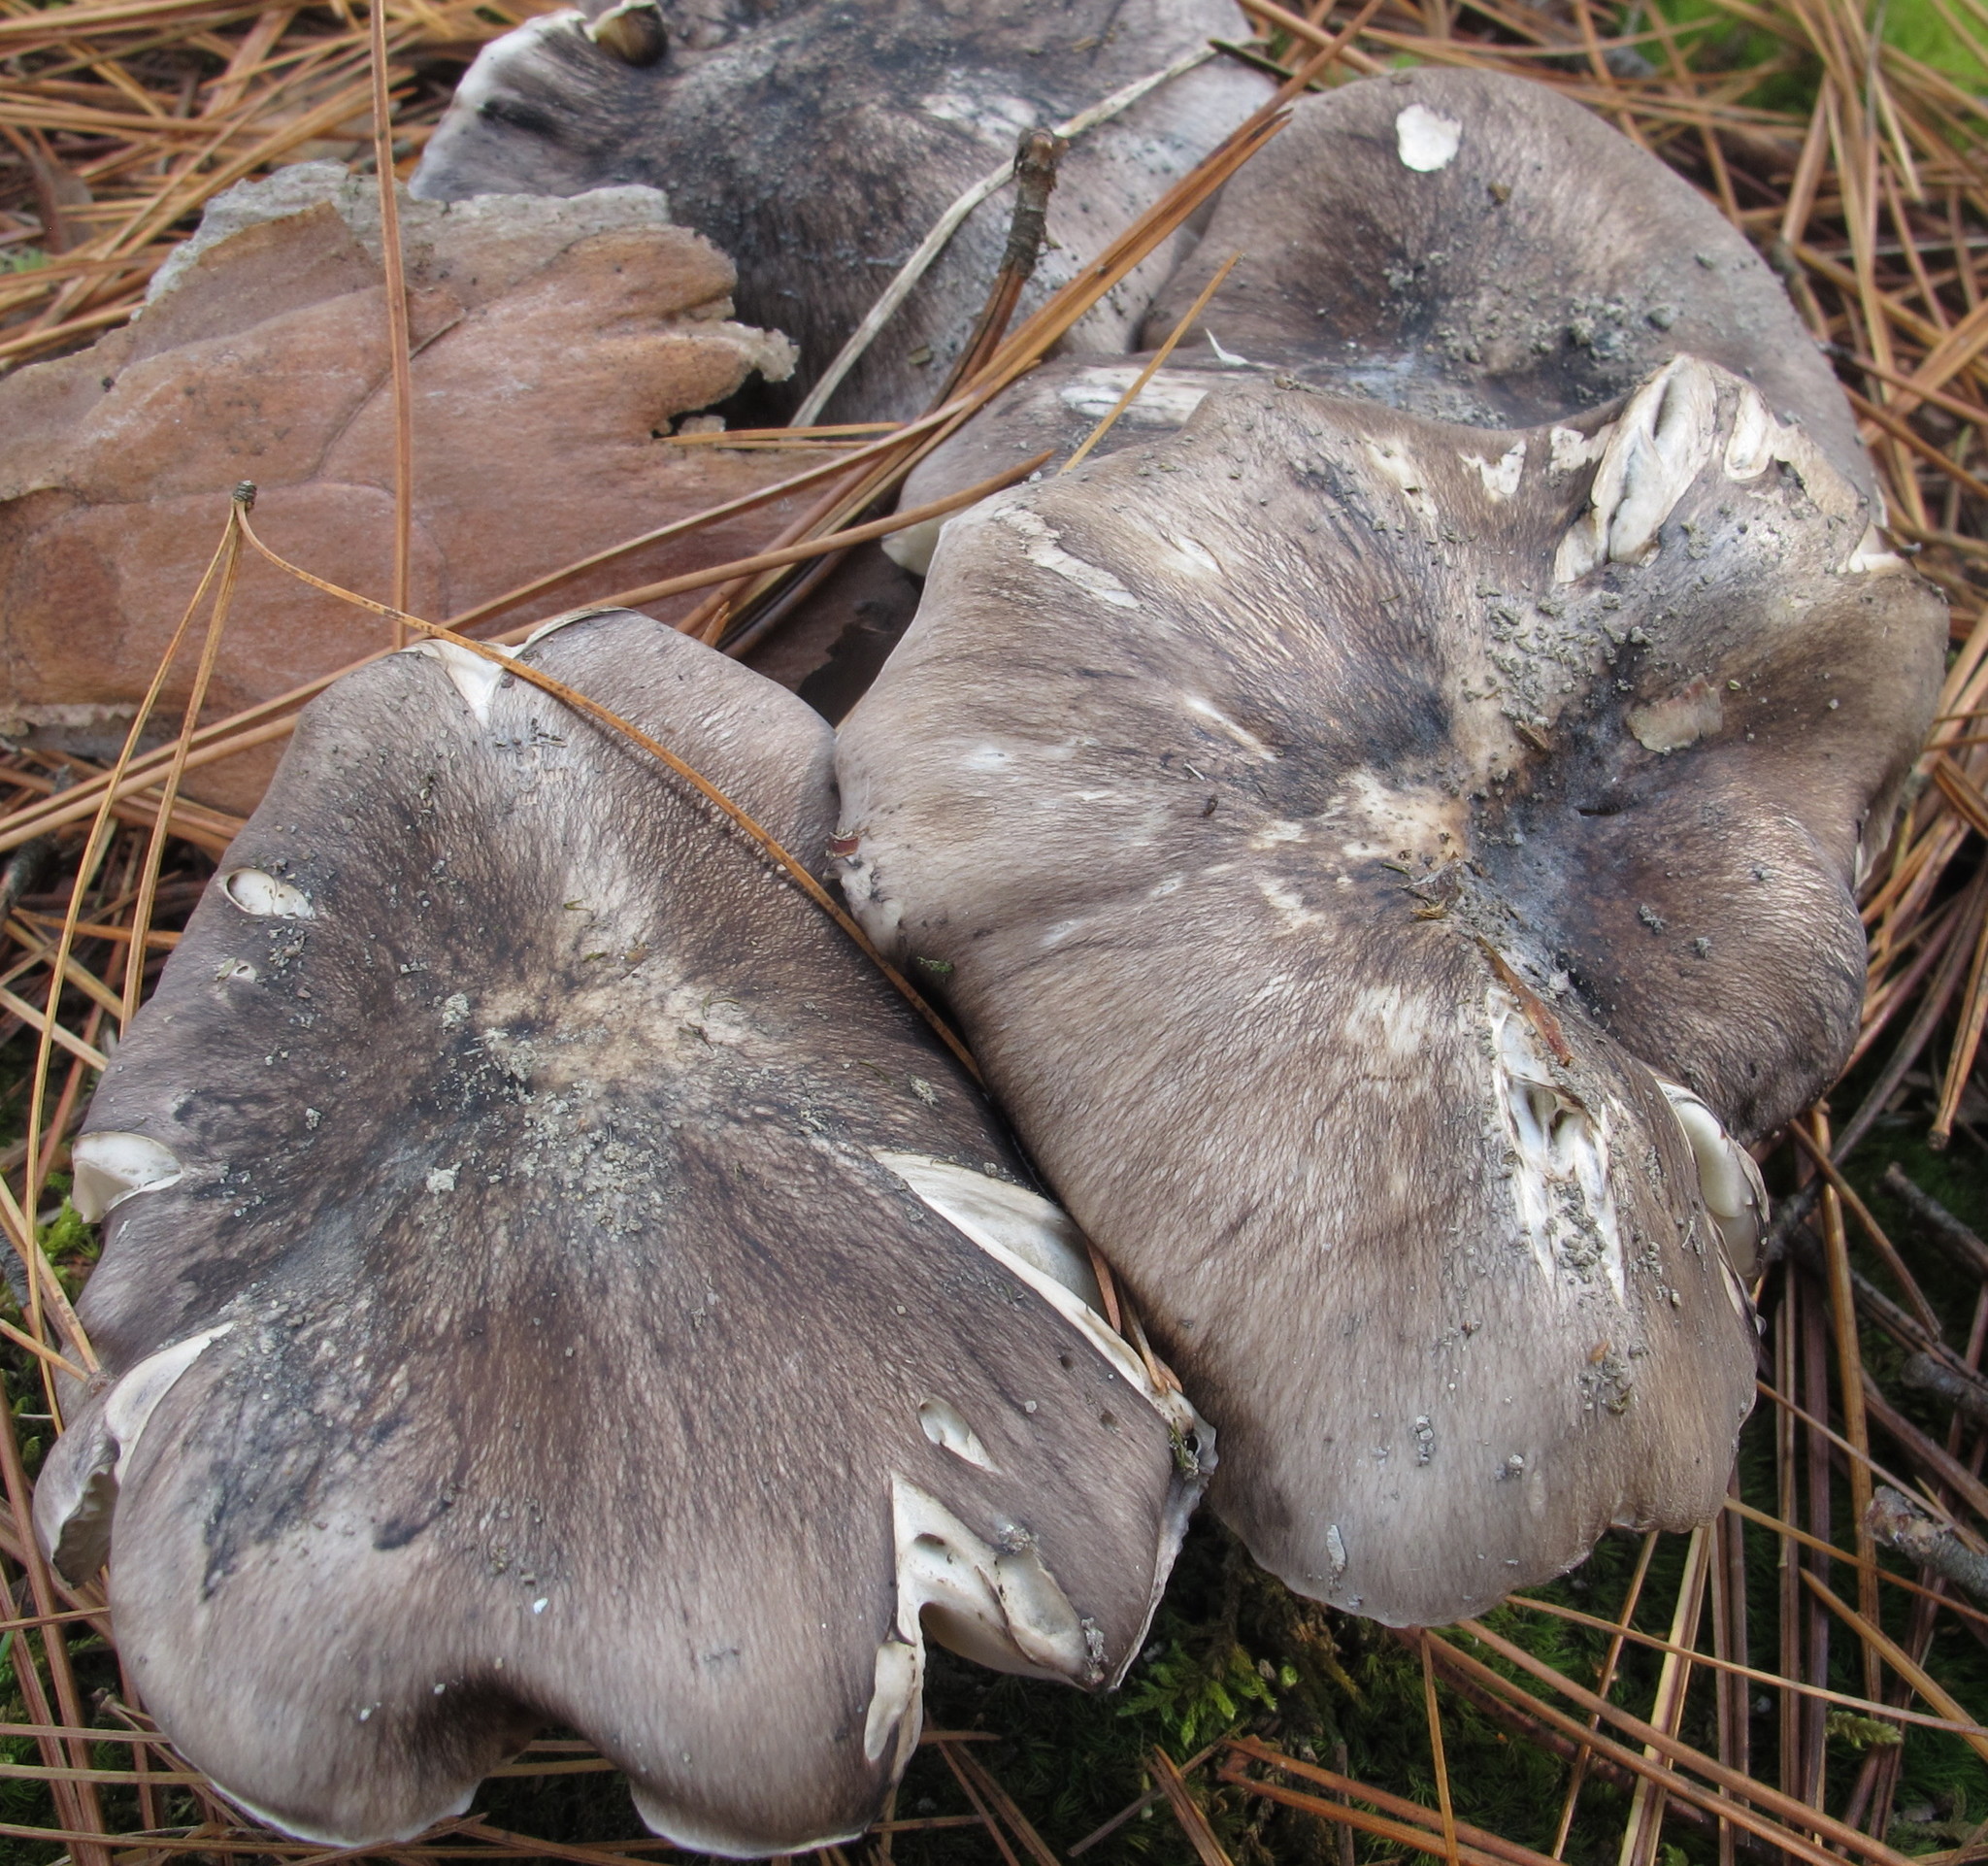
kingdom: Fungi
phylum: Basidiomycota
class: Agaricomycetes
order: Agaricales
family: Tricholomataceae
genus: Tricholoma
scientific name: Tricholoma portentosum
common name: Coalman
